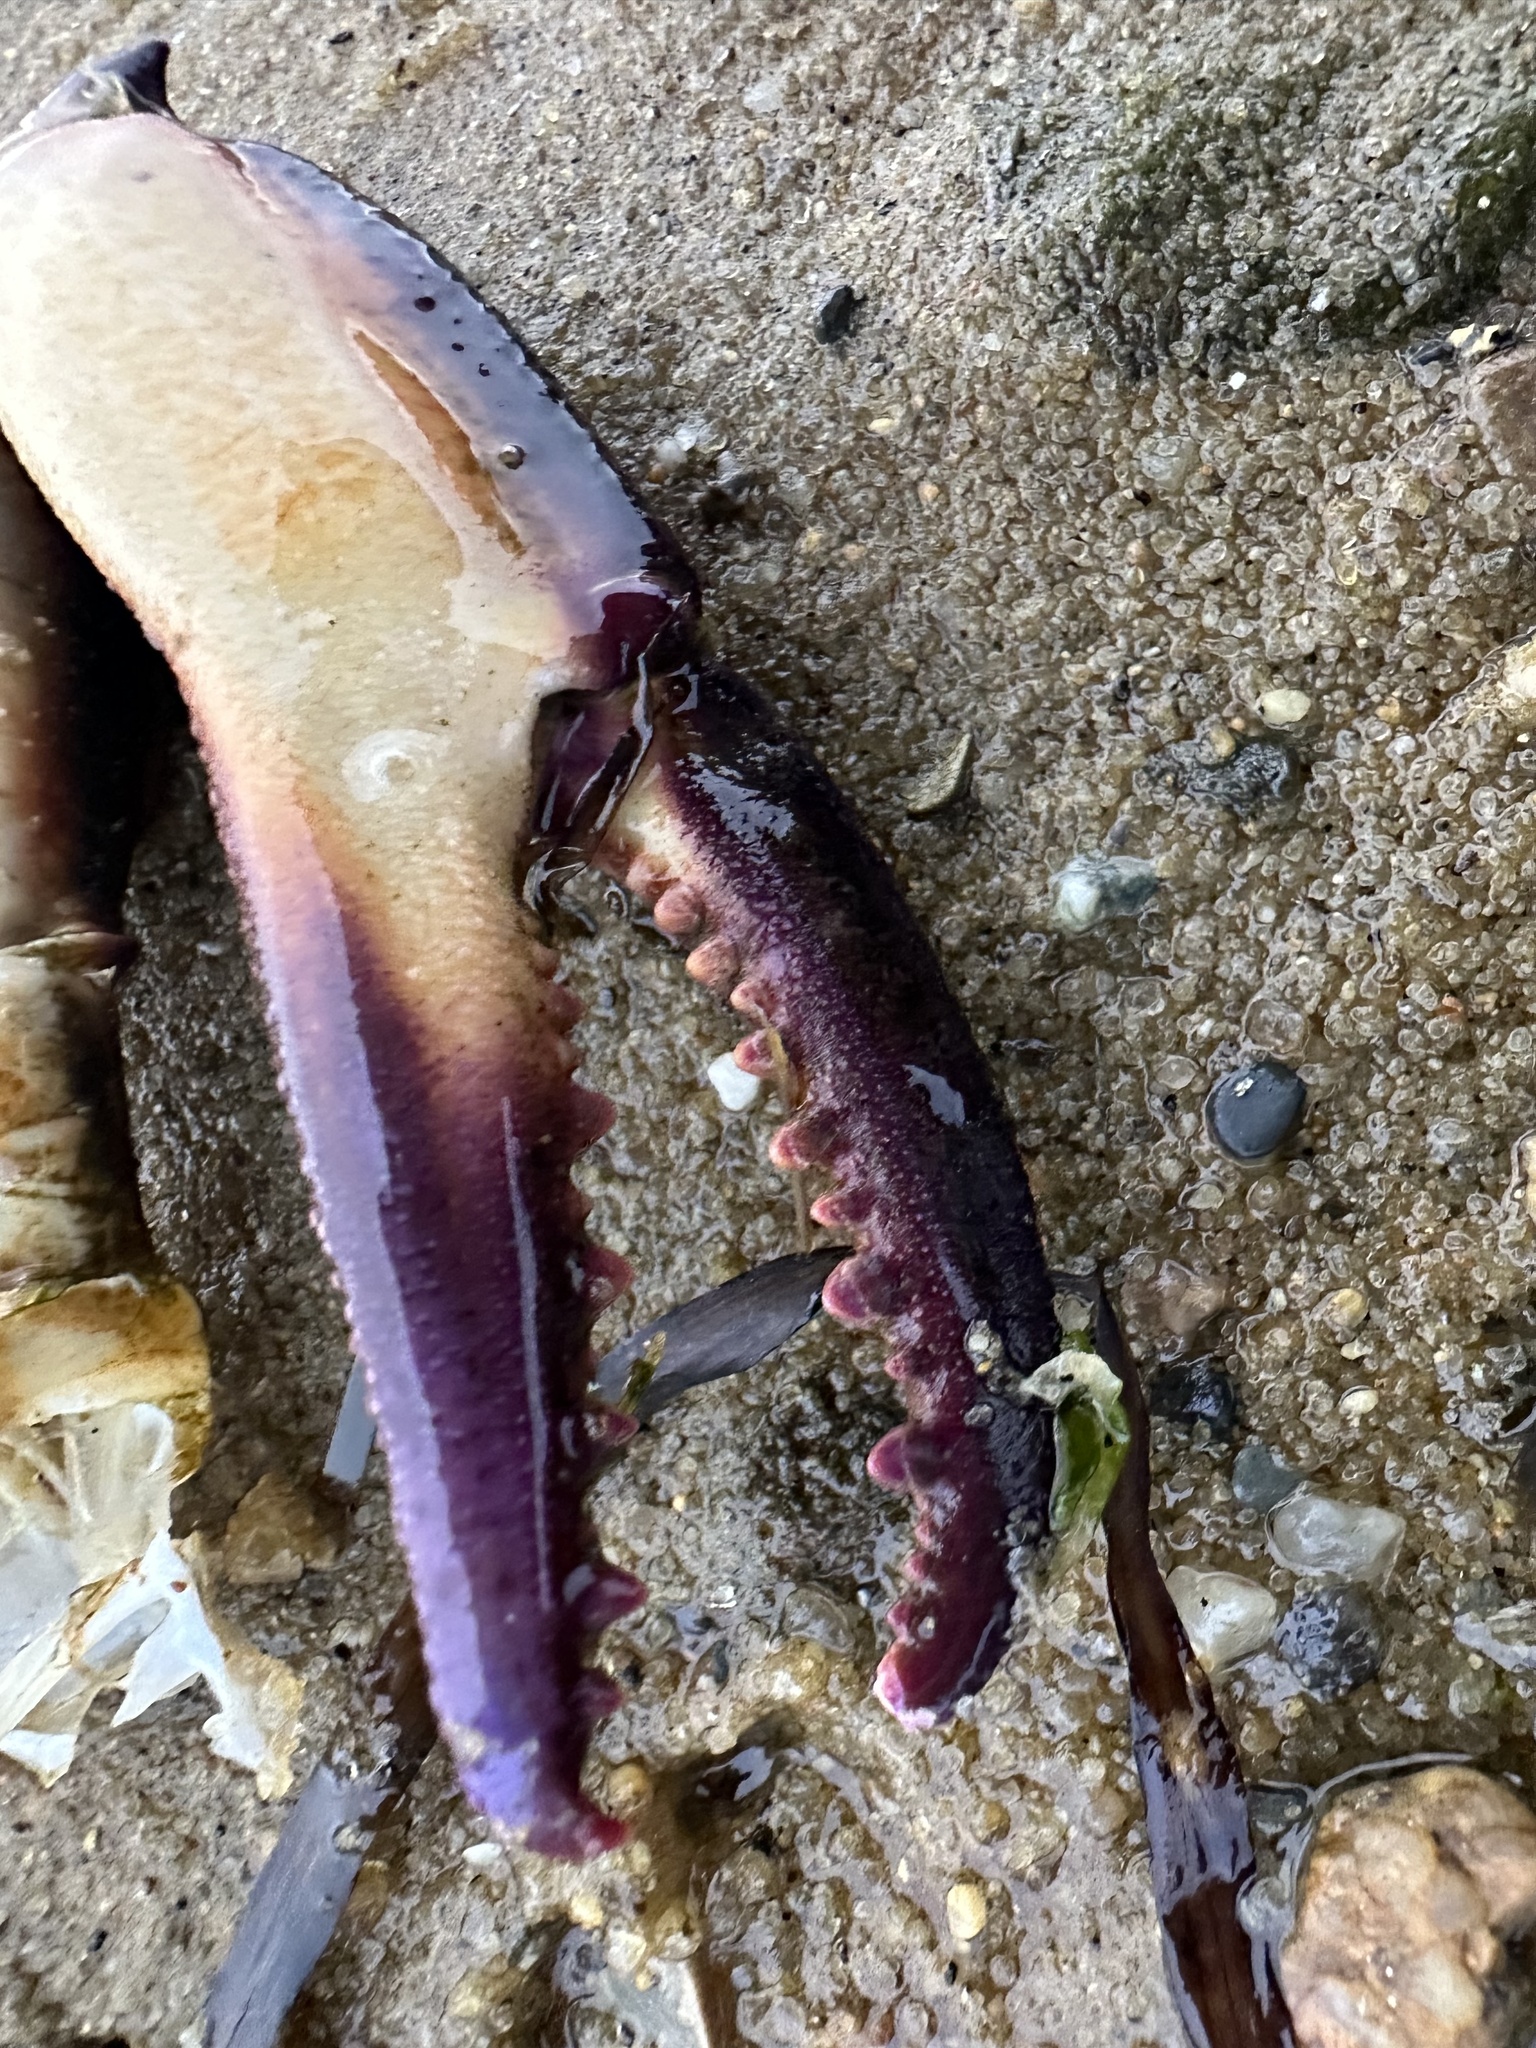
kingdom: Animalia
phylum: Arthropoda
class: Malacostraca
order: Decapoda
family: Ovalipidae
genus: Ovalipes
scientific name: Ovalipes ocellatus
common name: Lady crab
